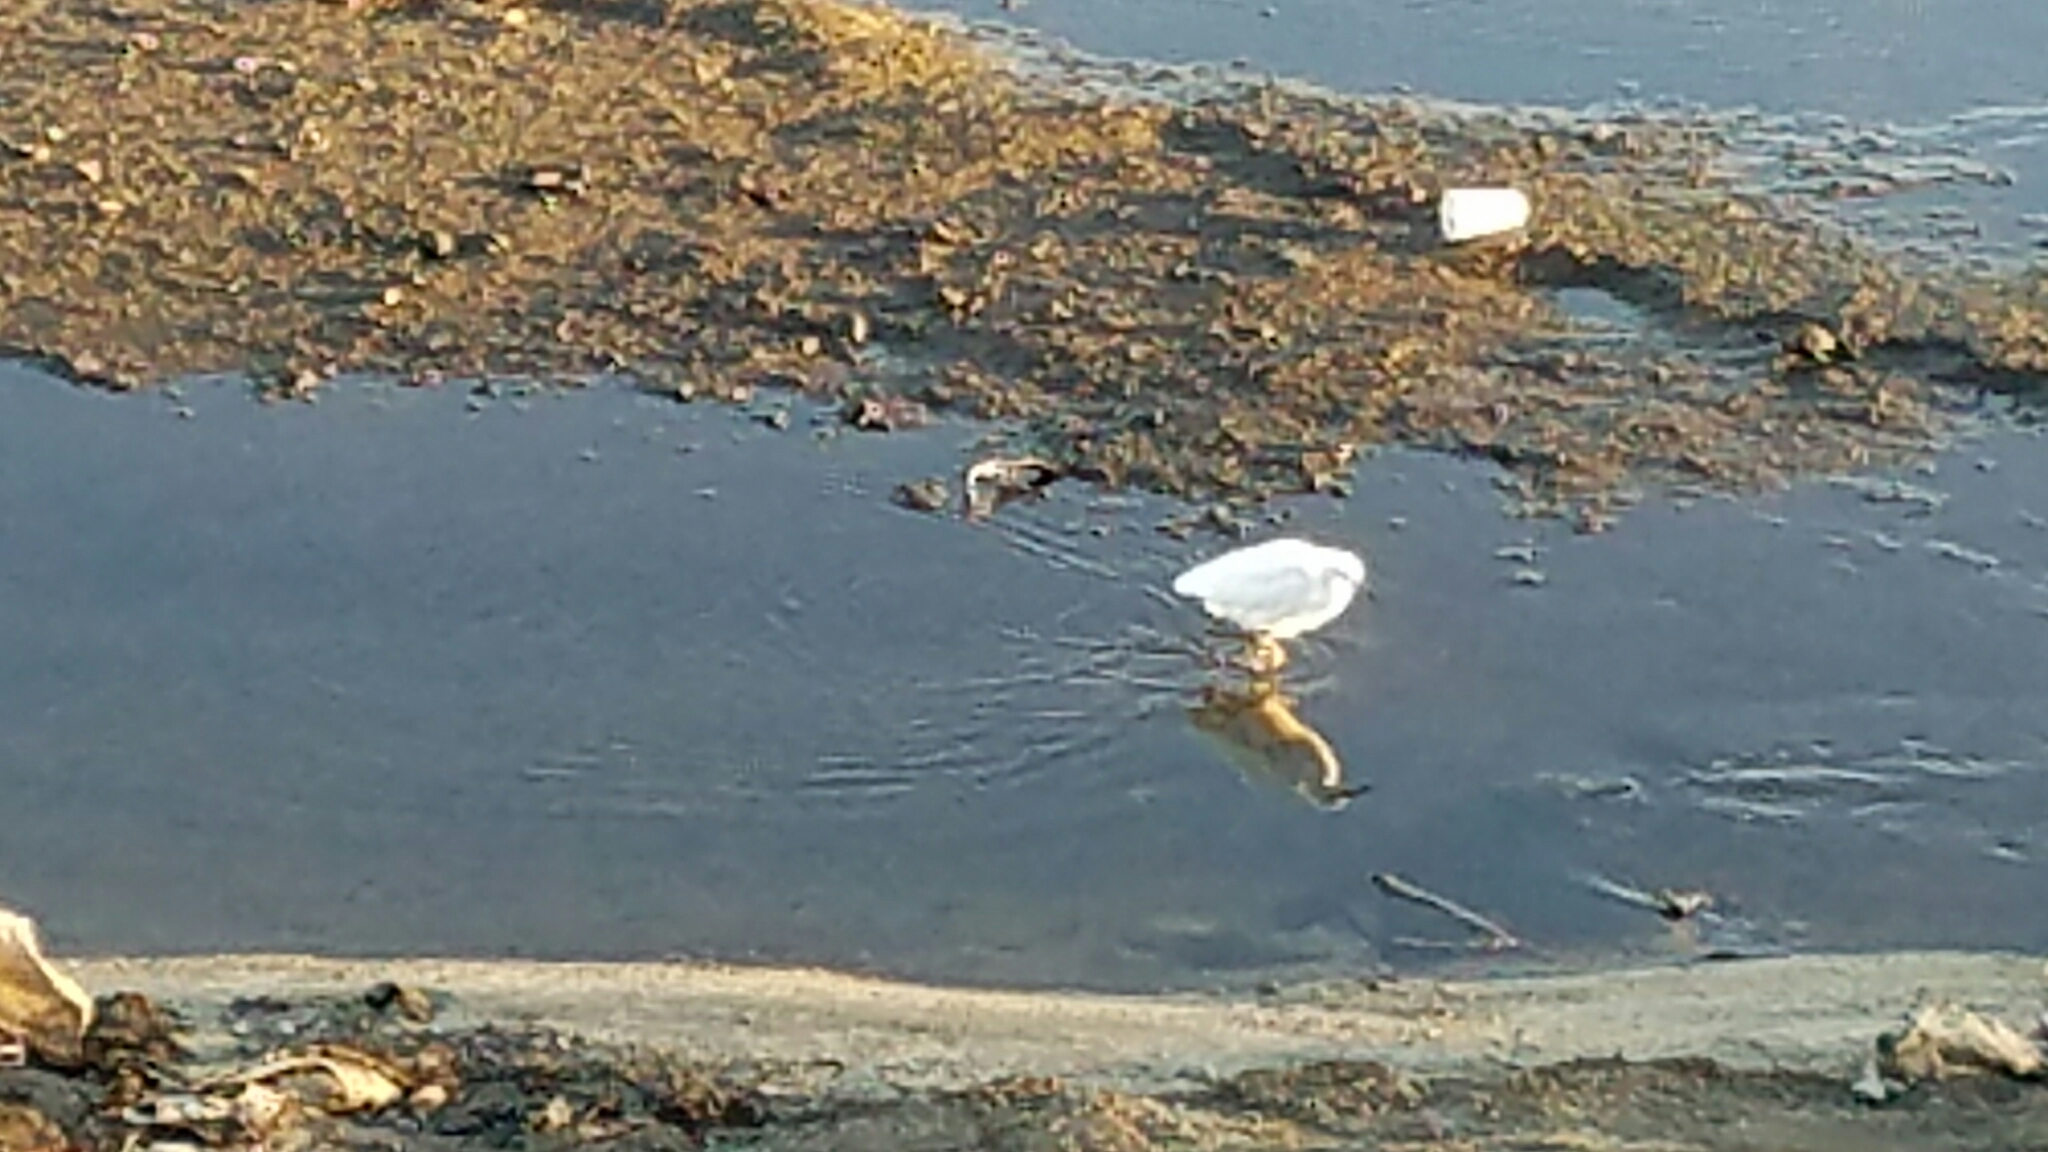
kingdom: Animalia
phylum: Chordata
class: Aves
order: Pelecaniformes
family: Ardeidae
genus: Egretta
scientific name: Egretta thula
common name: Snowy egret
